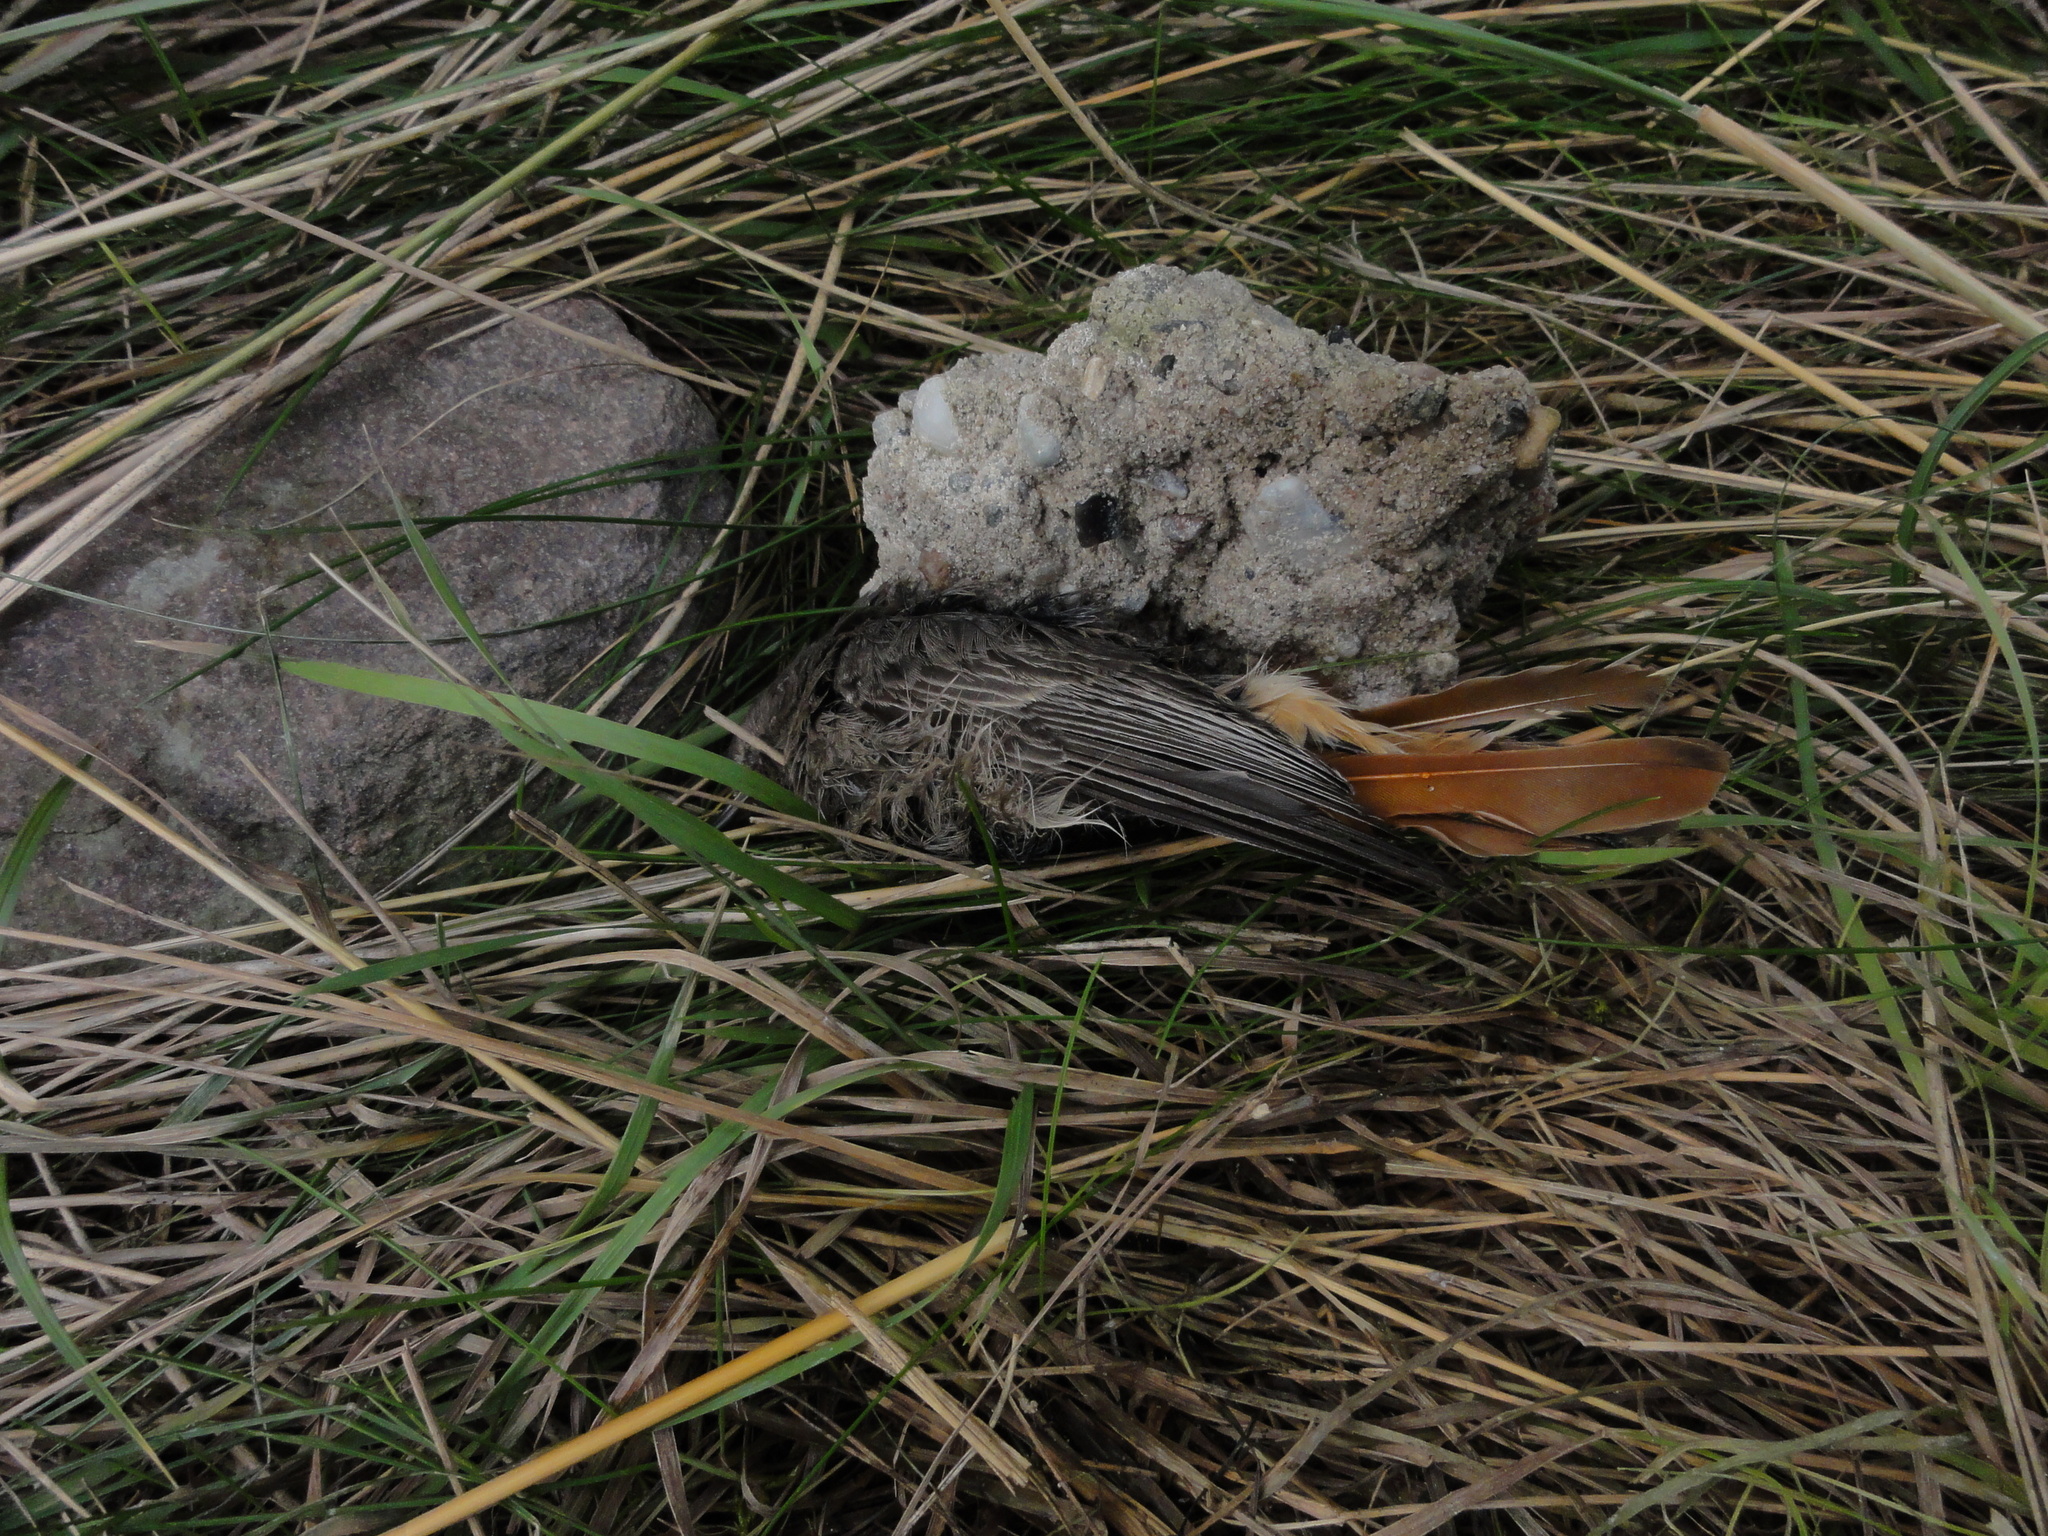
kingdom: Animalia
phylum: Chordata
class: Aves
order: Passeriformes
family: Muscicapidae
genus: Phoenicurus
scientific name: Phoenicurus ochruros
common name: Black redstart
